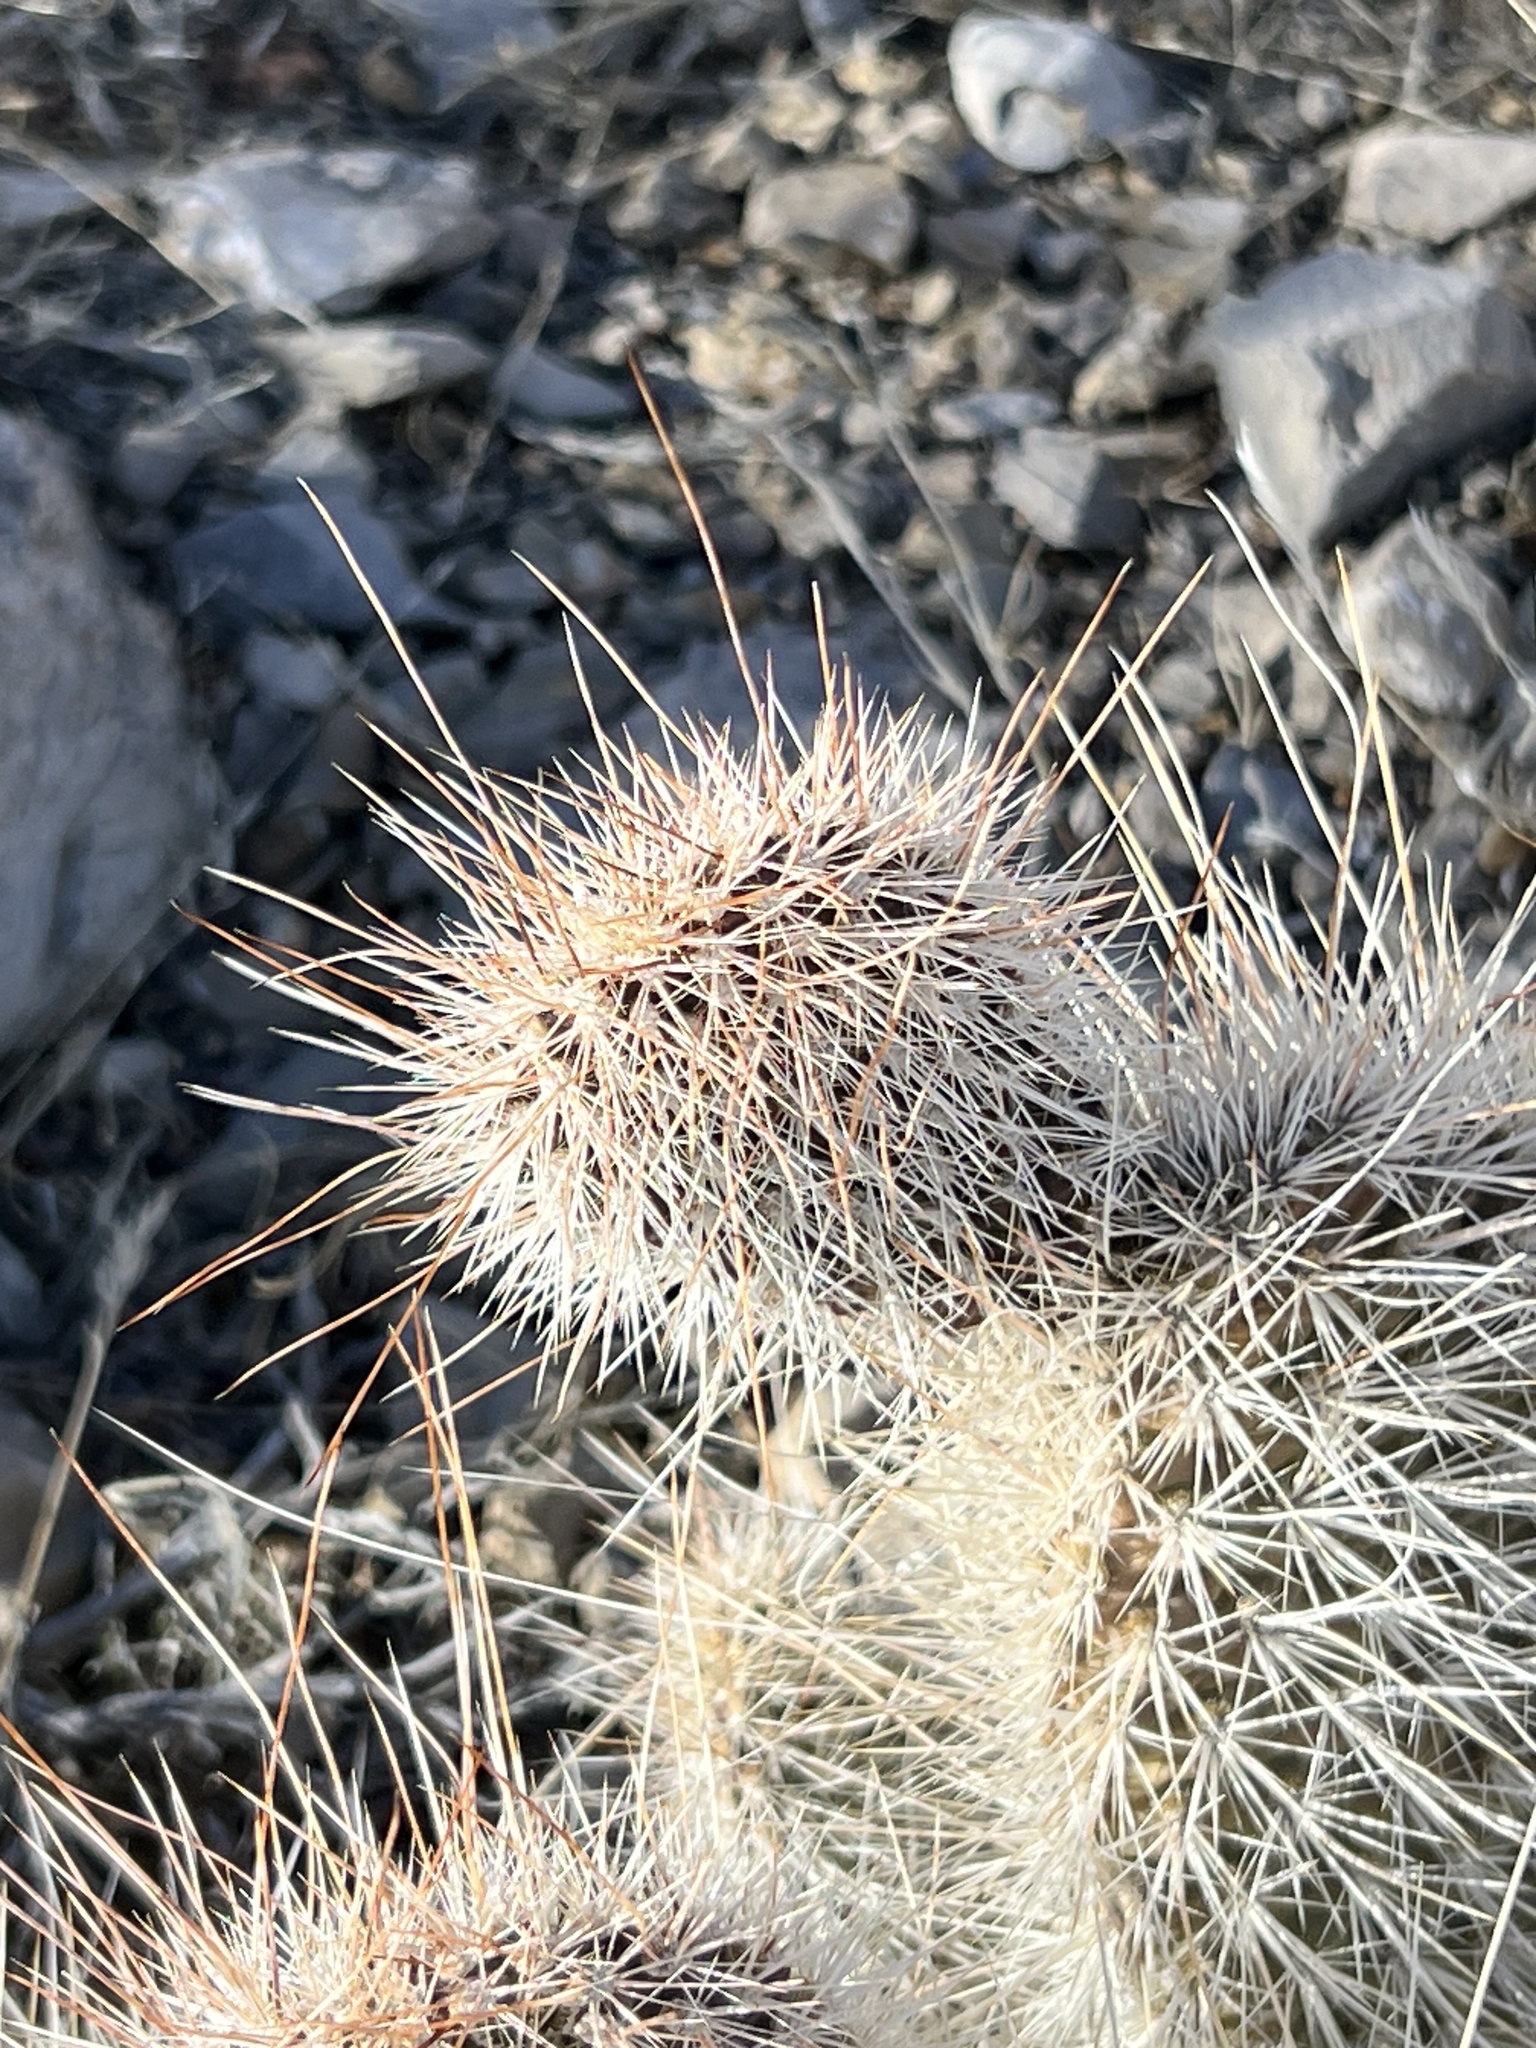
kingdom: Plantae
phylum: Tracheophyta
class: Magnoliopsida
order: Caryophyllales
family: Cactaceae
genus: Opuntia
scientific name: Opuntia polyacantha
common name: Plains prickly-pear
